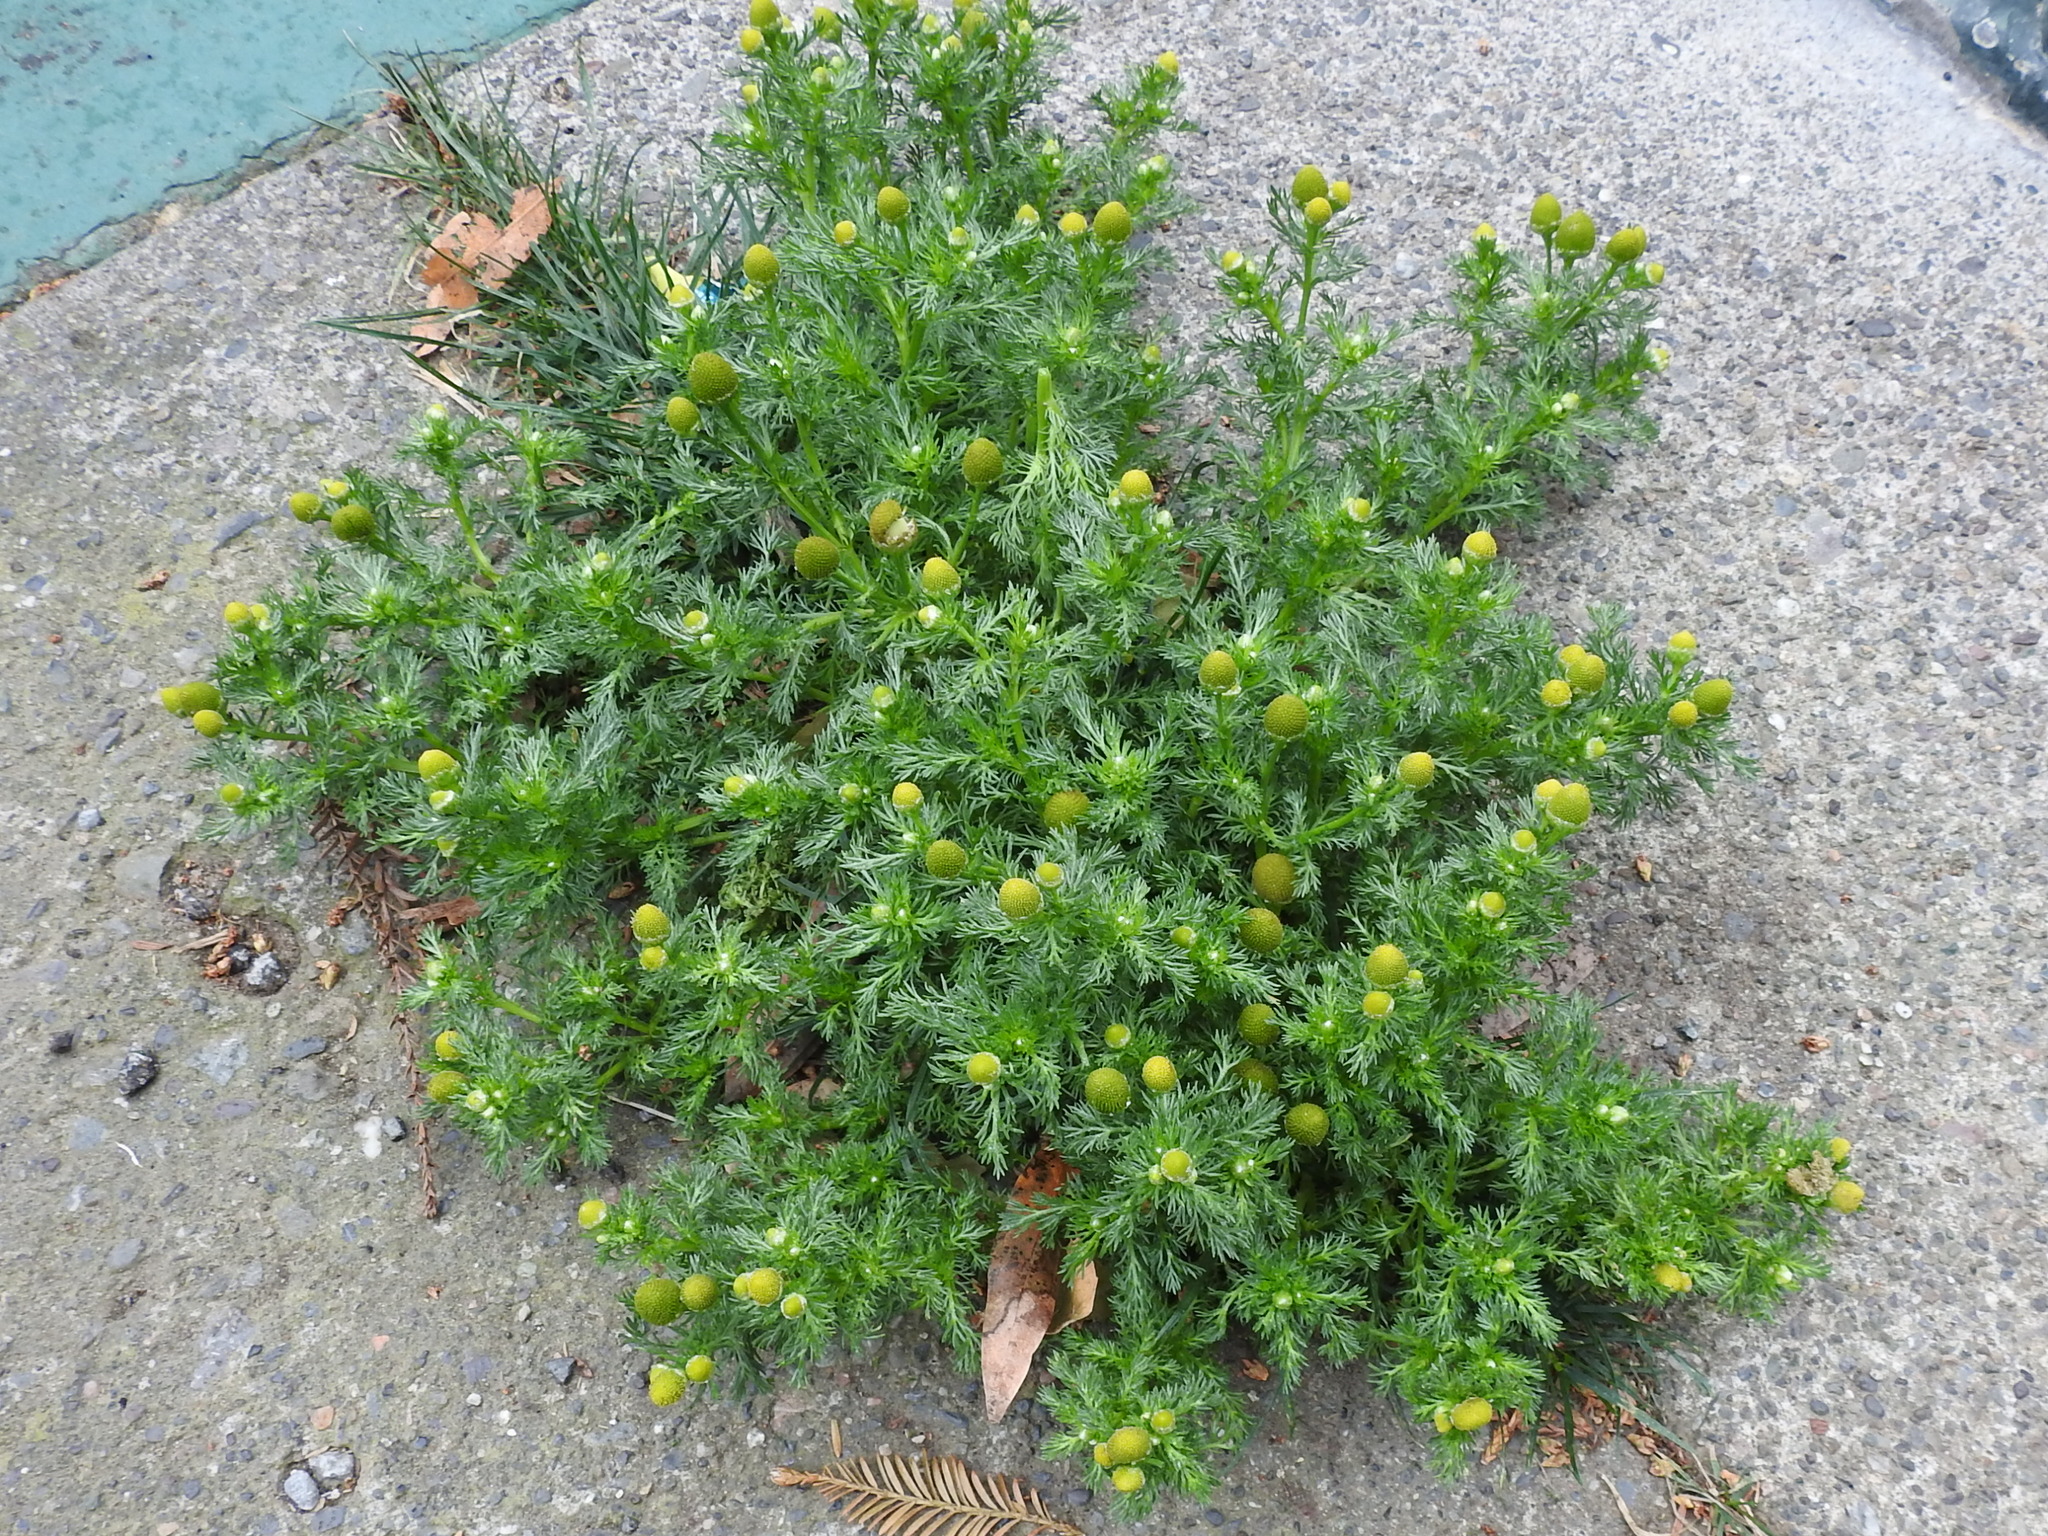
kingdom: Plantae
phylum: Tracheophyta
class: Magnoliopsida
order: Asterales
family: Asteraceae
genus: Matricaria
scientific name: Matricaria discoidea
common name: Disc mayweed
